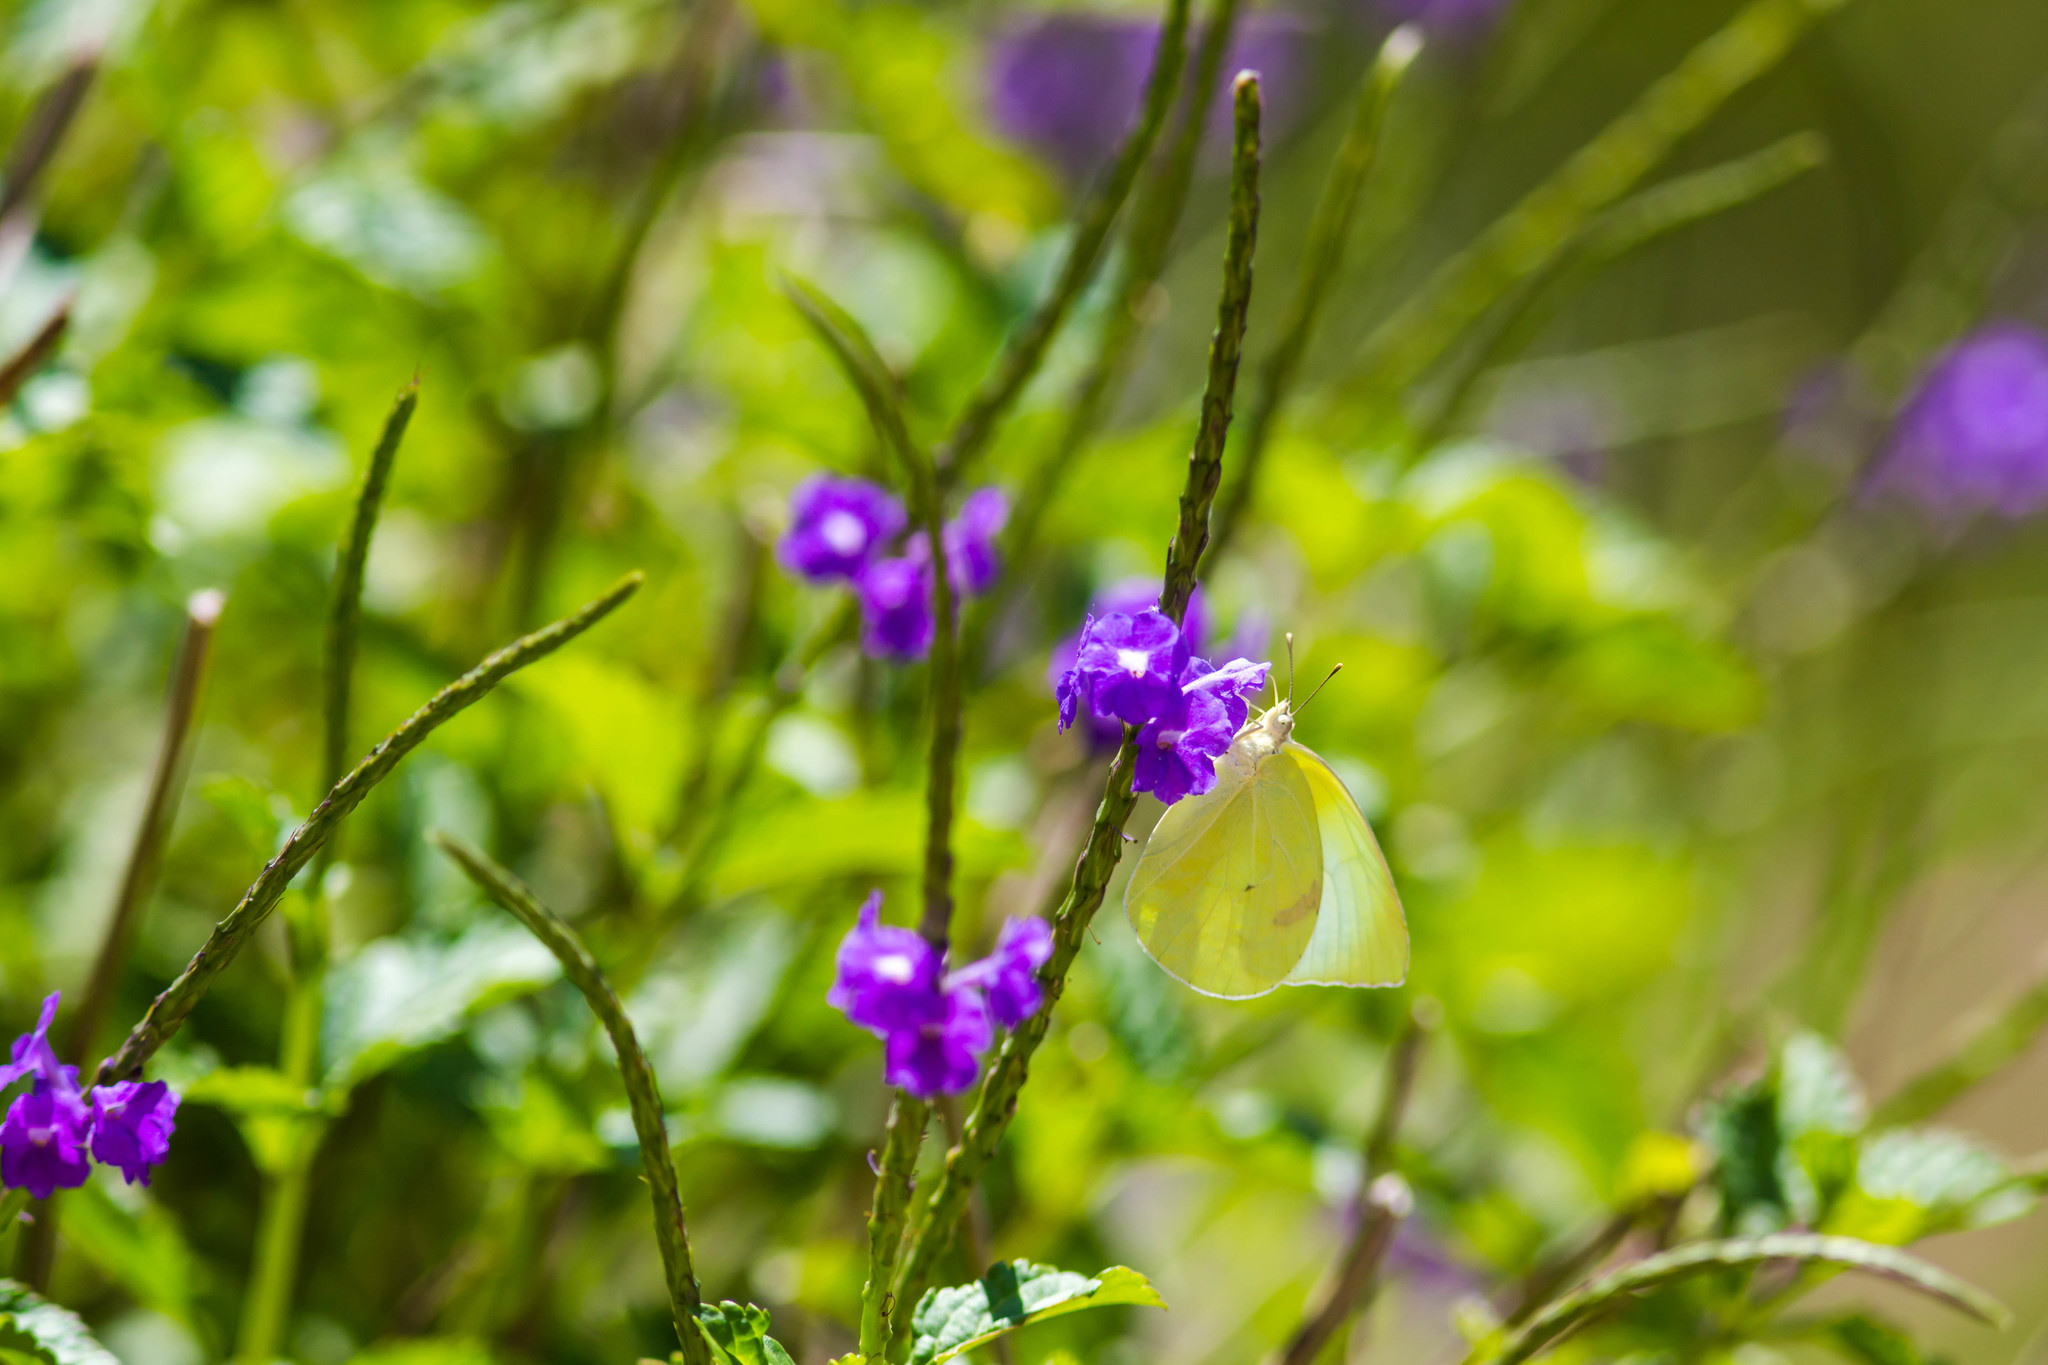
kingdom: Animalia
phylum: Arthropoda
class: Insecta
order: Lepidoptera
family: Pieridae
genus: Kricogonia
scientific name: Kricogonia lyside
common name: Guayacan sulphur,
